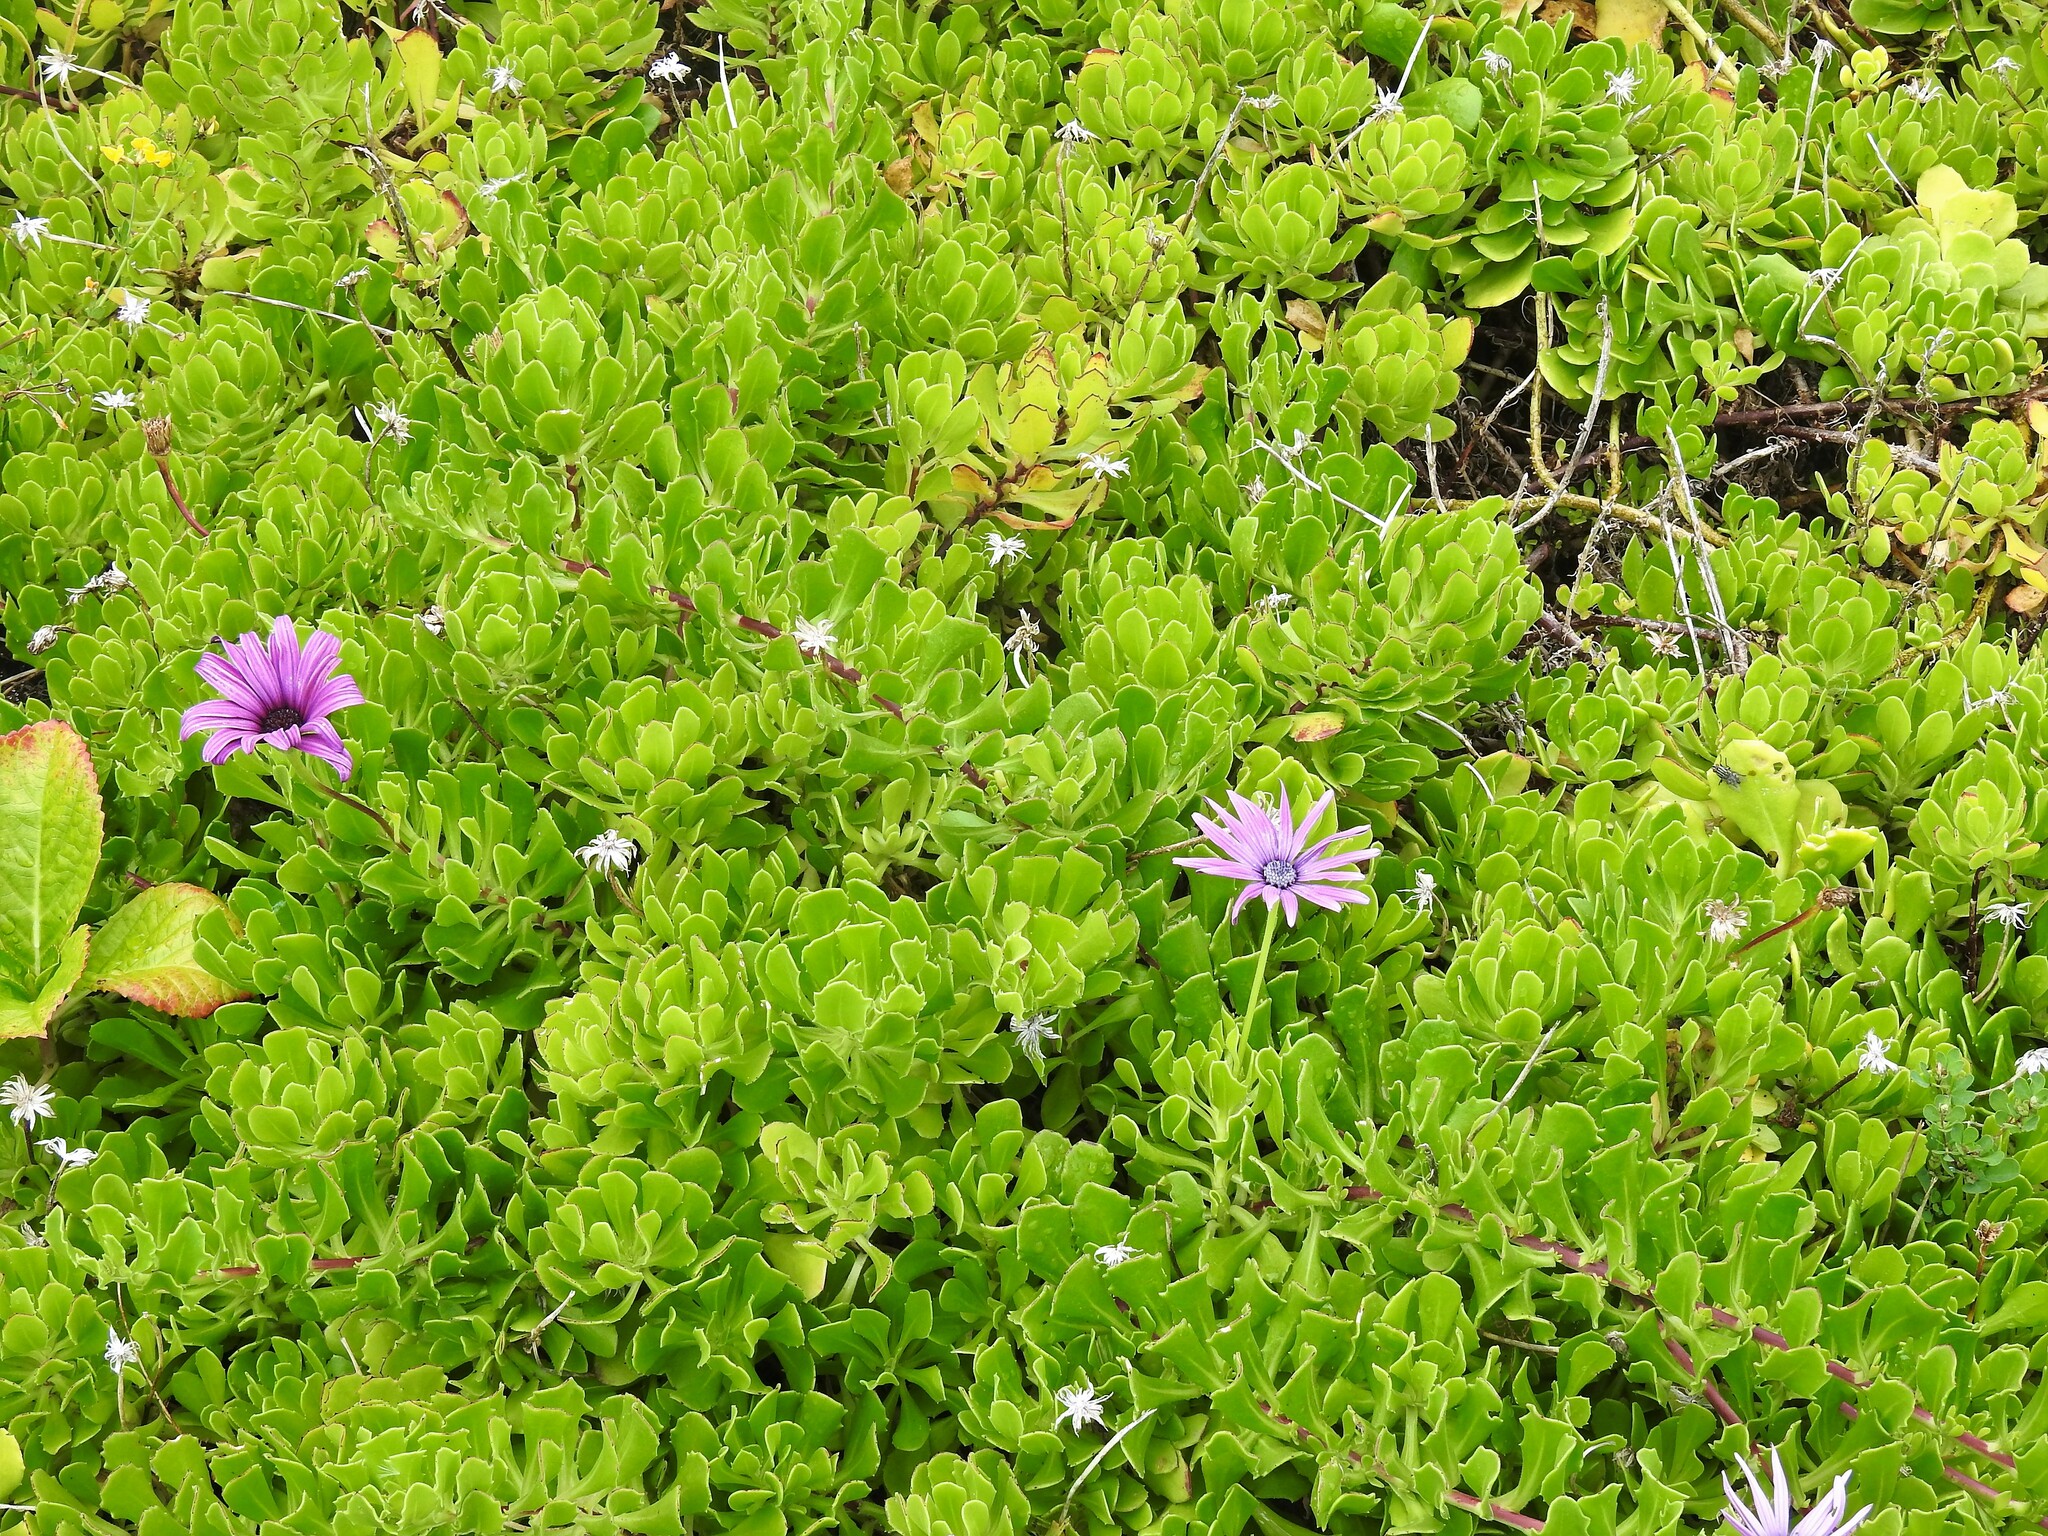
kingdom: Plantae
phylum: Tracheophyta
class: Magnoliopsida
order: Asterales
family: Asteraceae
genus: Dimorphotheca
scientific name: Dimorphotheca ecklonis
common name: Vanstaden's river daisy
